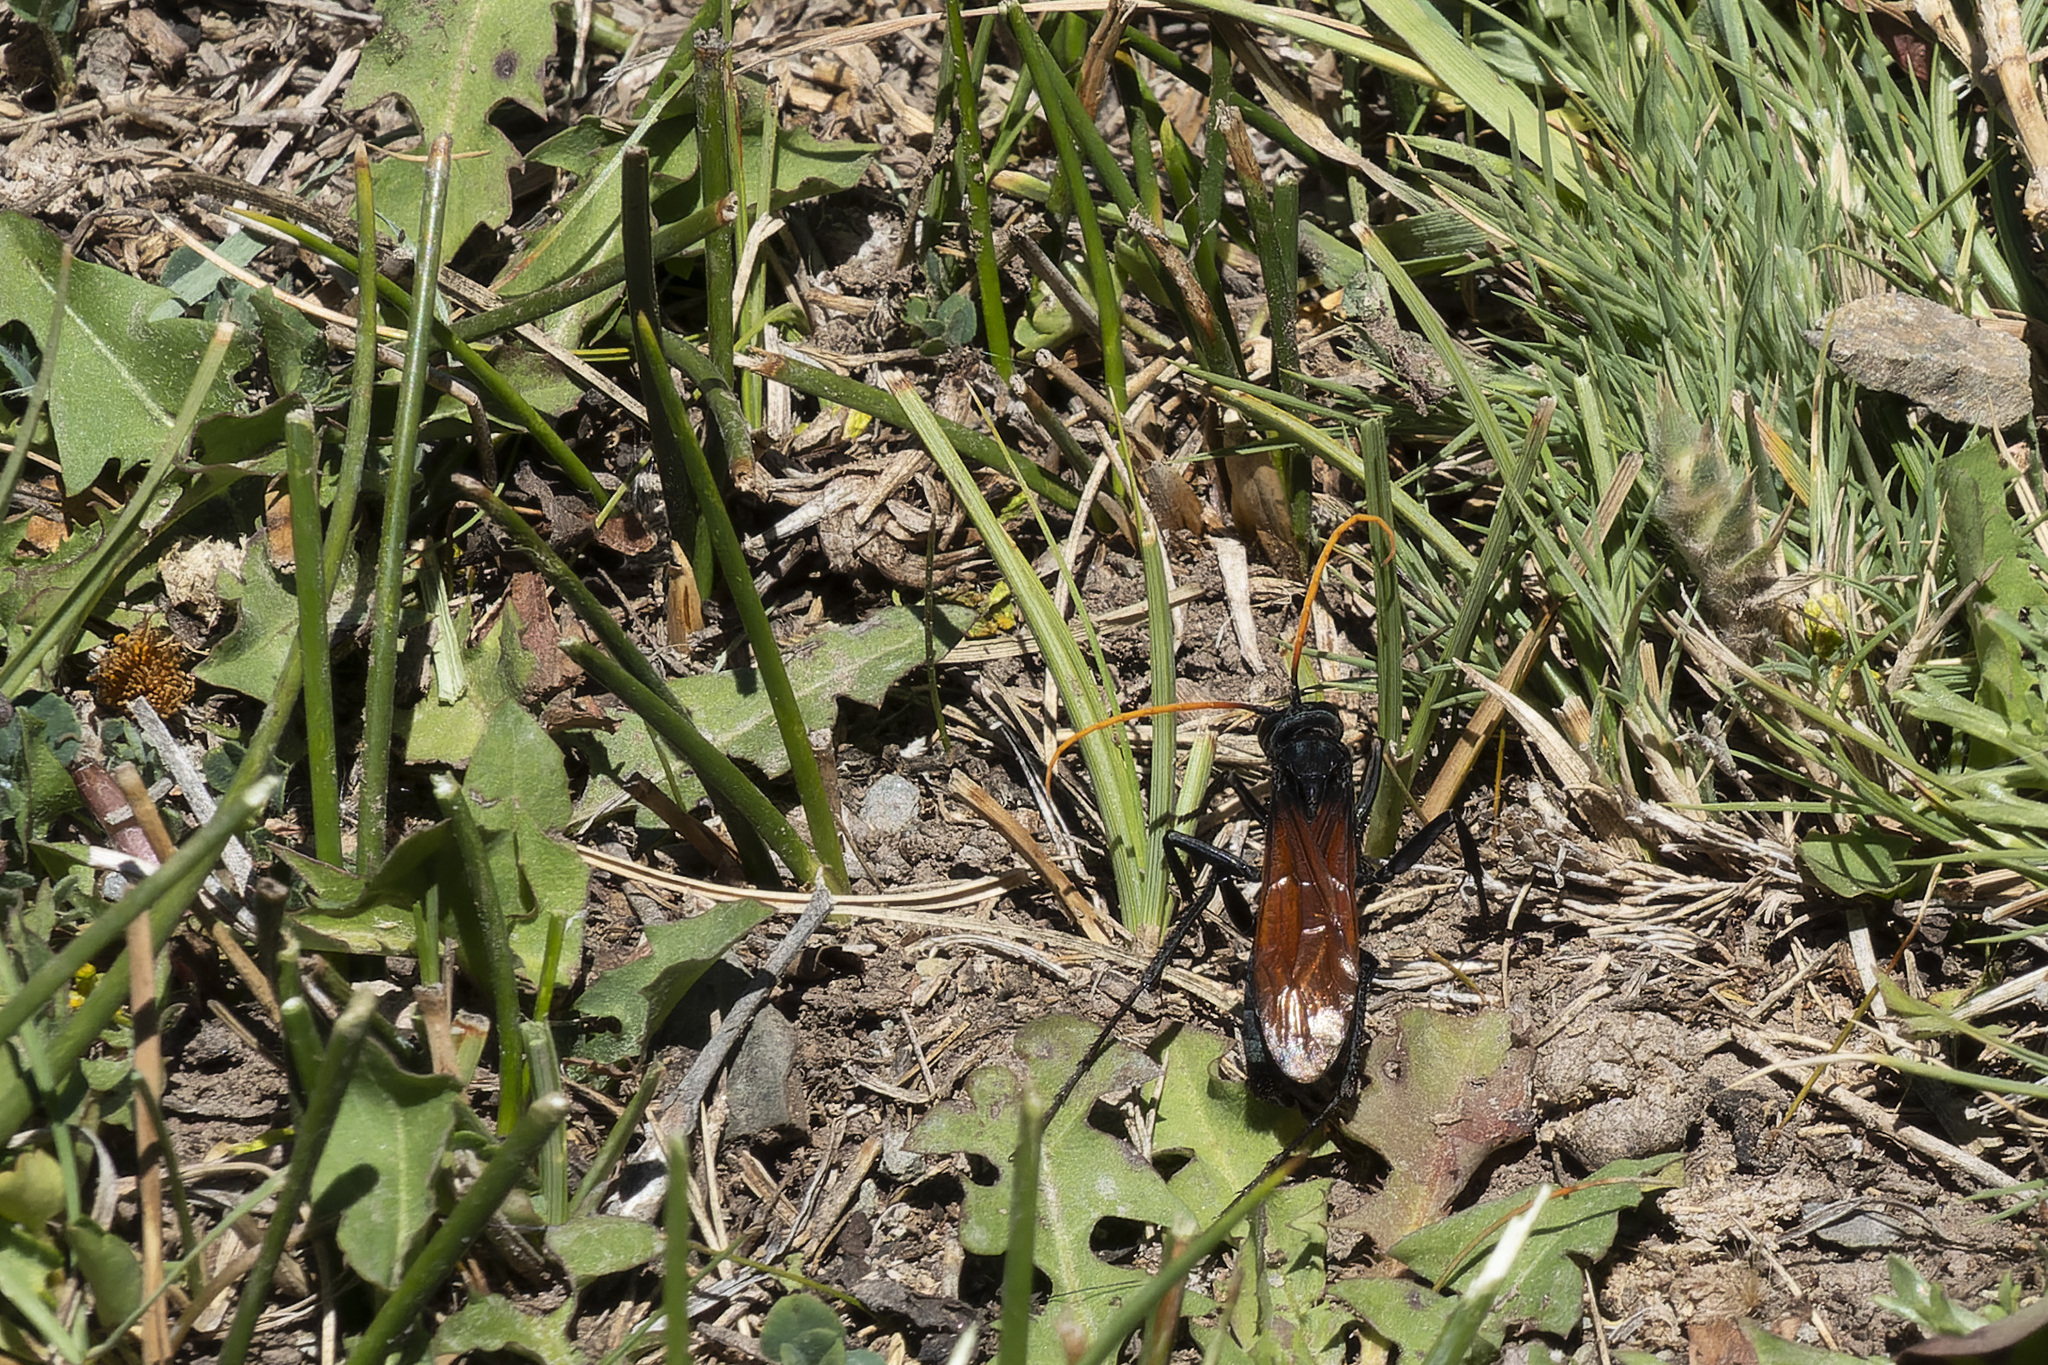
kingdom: Animalia
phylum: Arthropoda
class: Insecta
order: Hymenoptera
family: Pompilidae
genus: Entypus
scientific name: Entypus ferruginipennis
